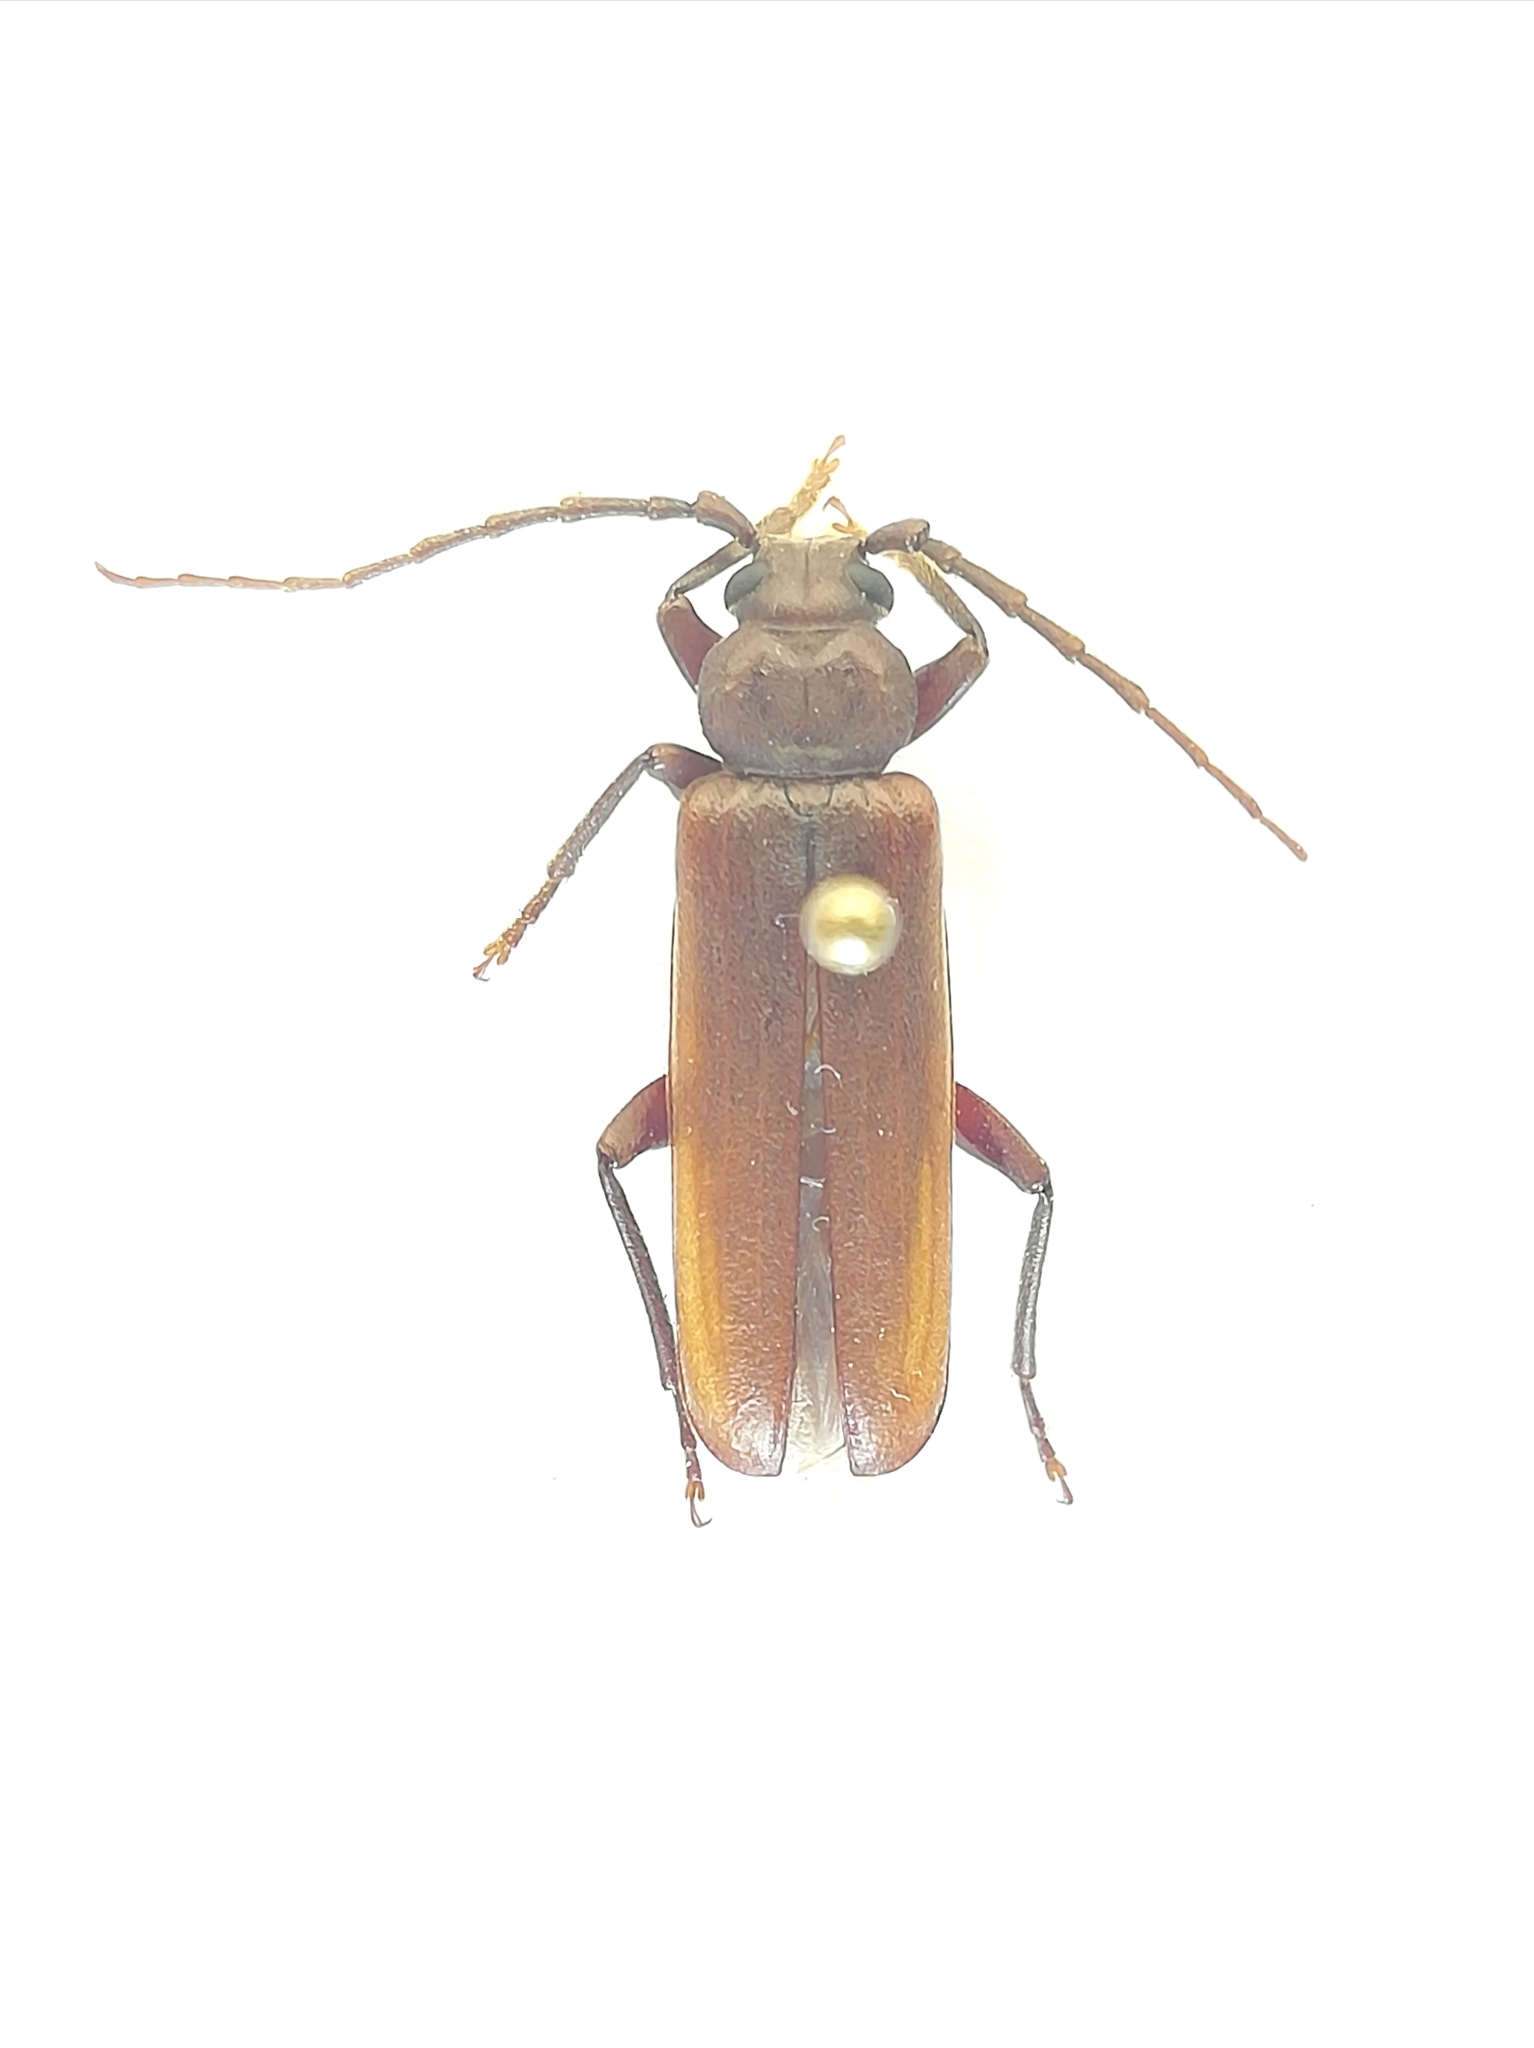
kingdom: Animalia
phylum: Arthropoda
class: Insecta
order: Coleoptera
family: Cerambycidae
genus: Arhopalus
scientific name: Arhopalus rusticus
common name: Rust pine borer
